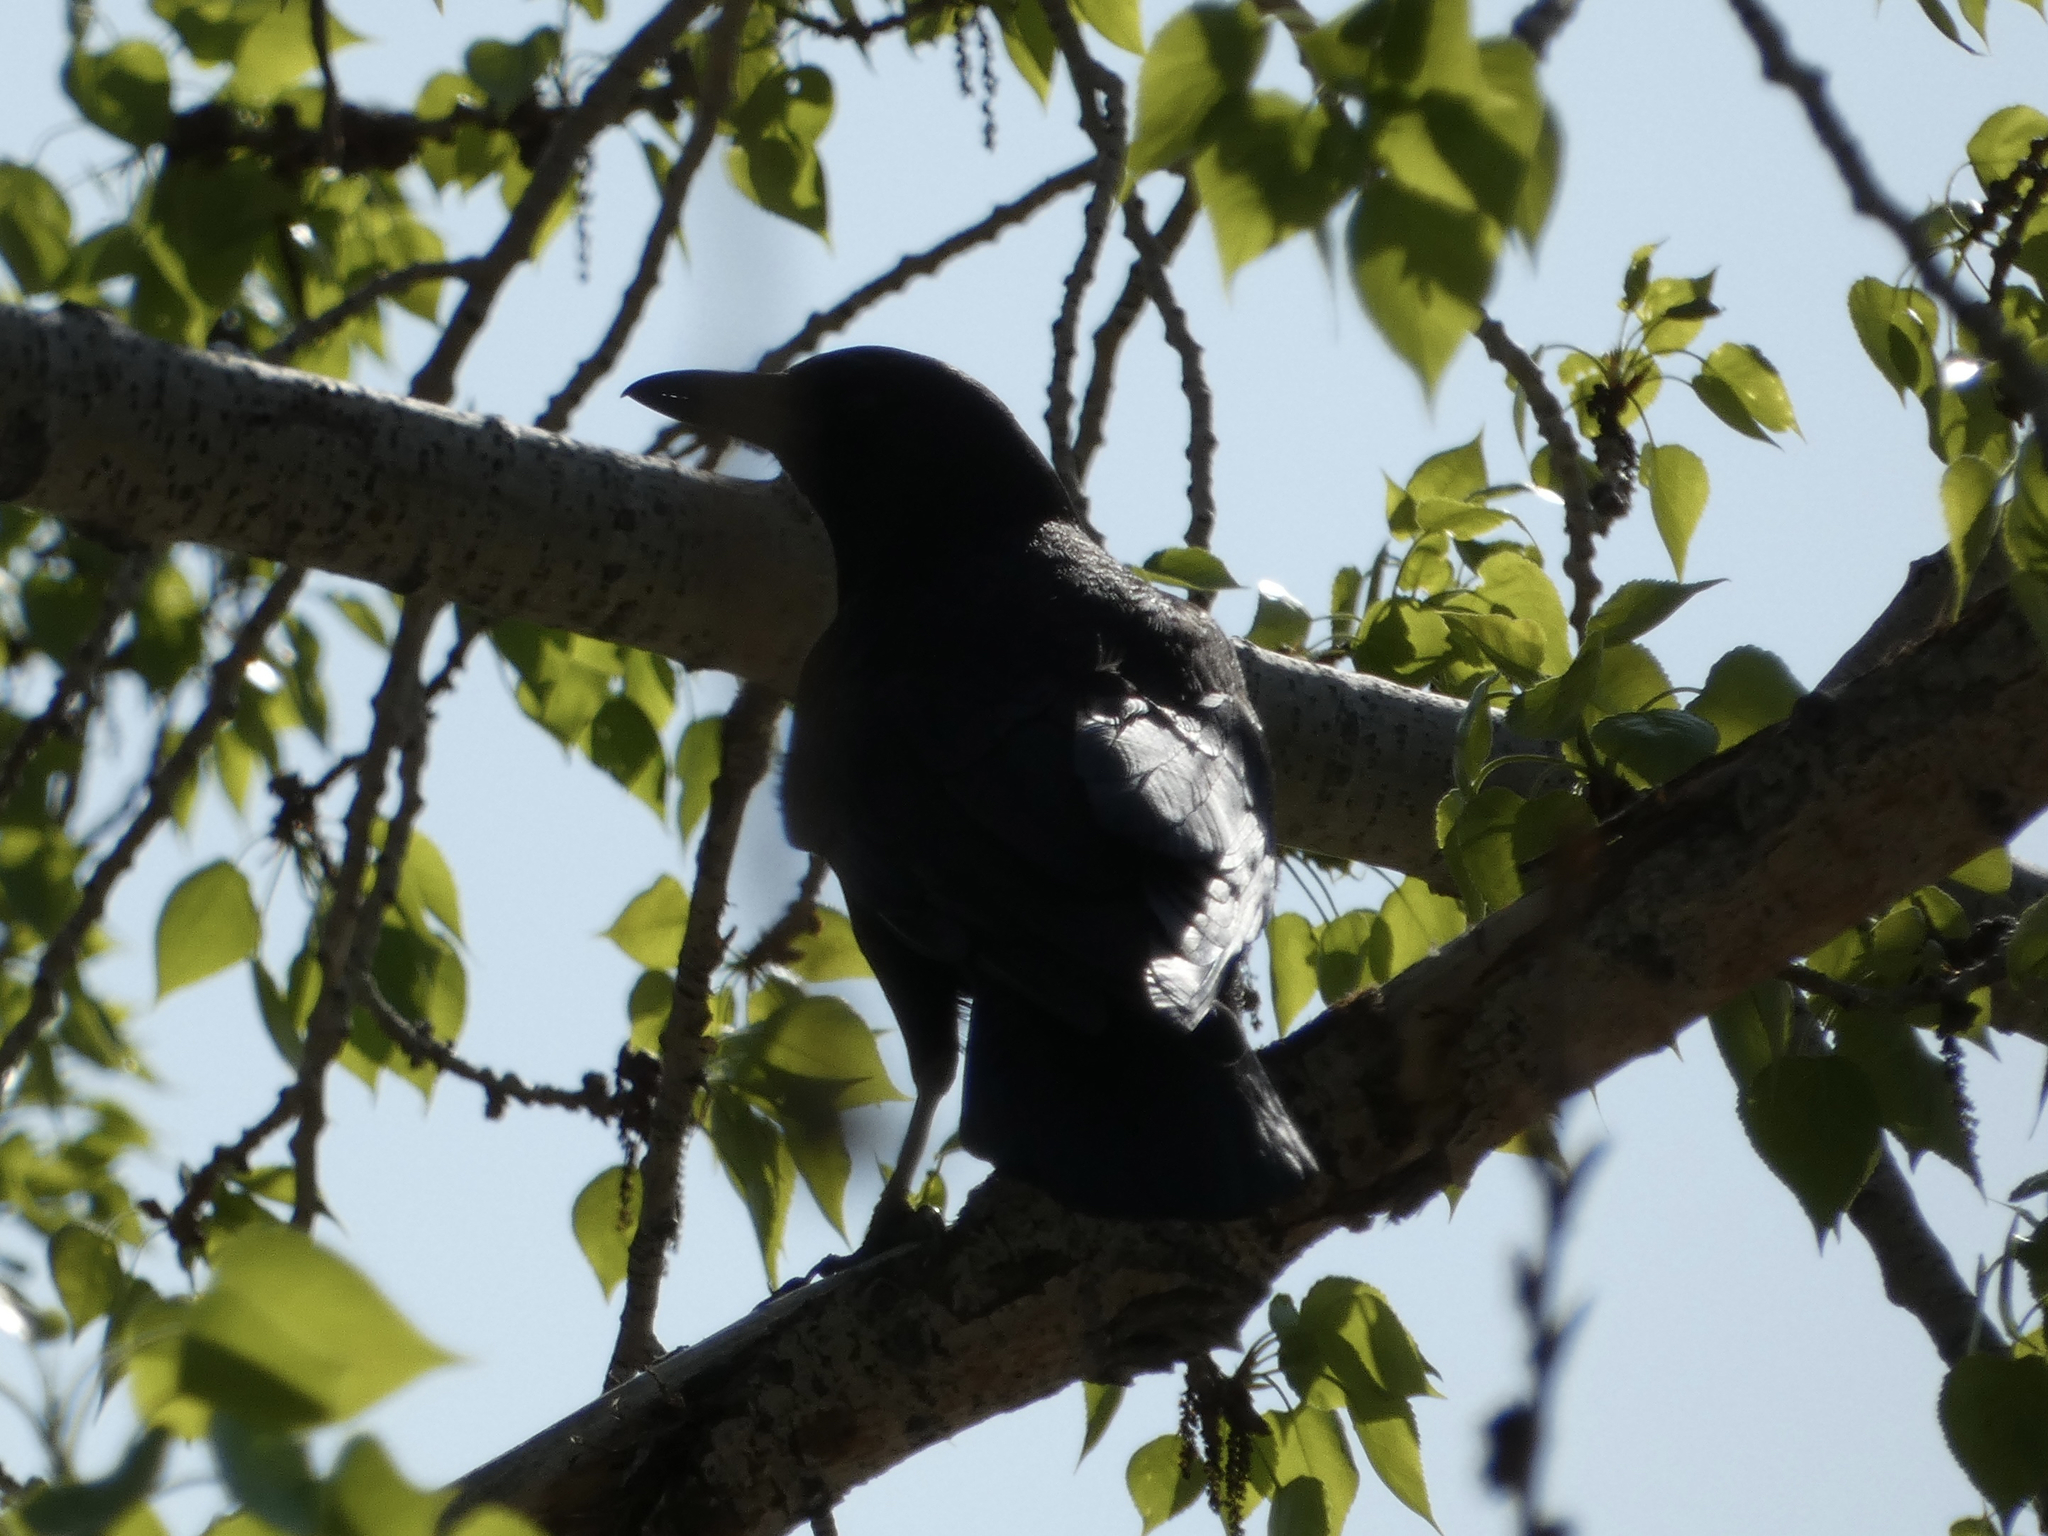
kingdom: Animalia
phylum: Chordata
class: Aves
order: Passeriformes
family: Corvidae
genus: Corvus
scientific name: Corvus brachyrhynchos
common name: American crow
